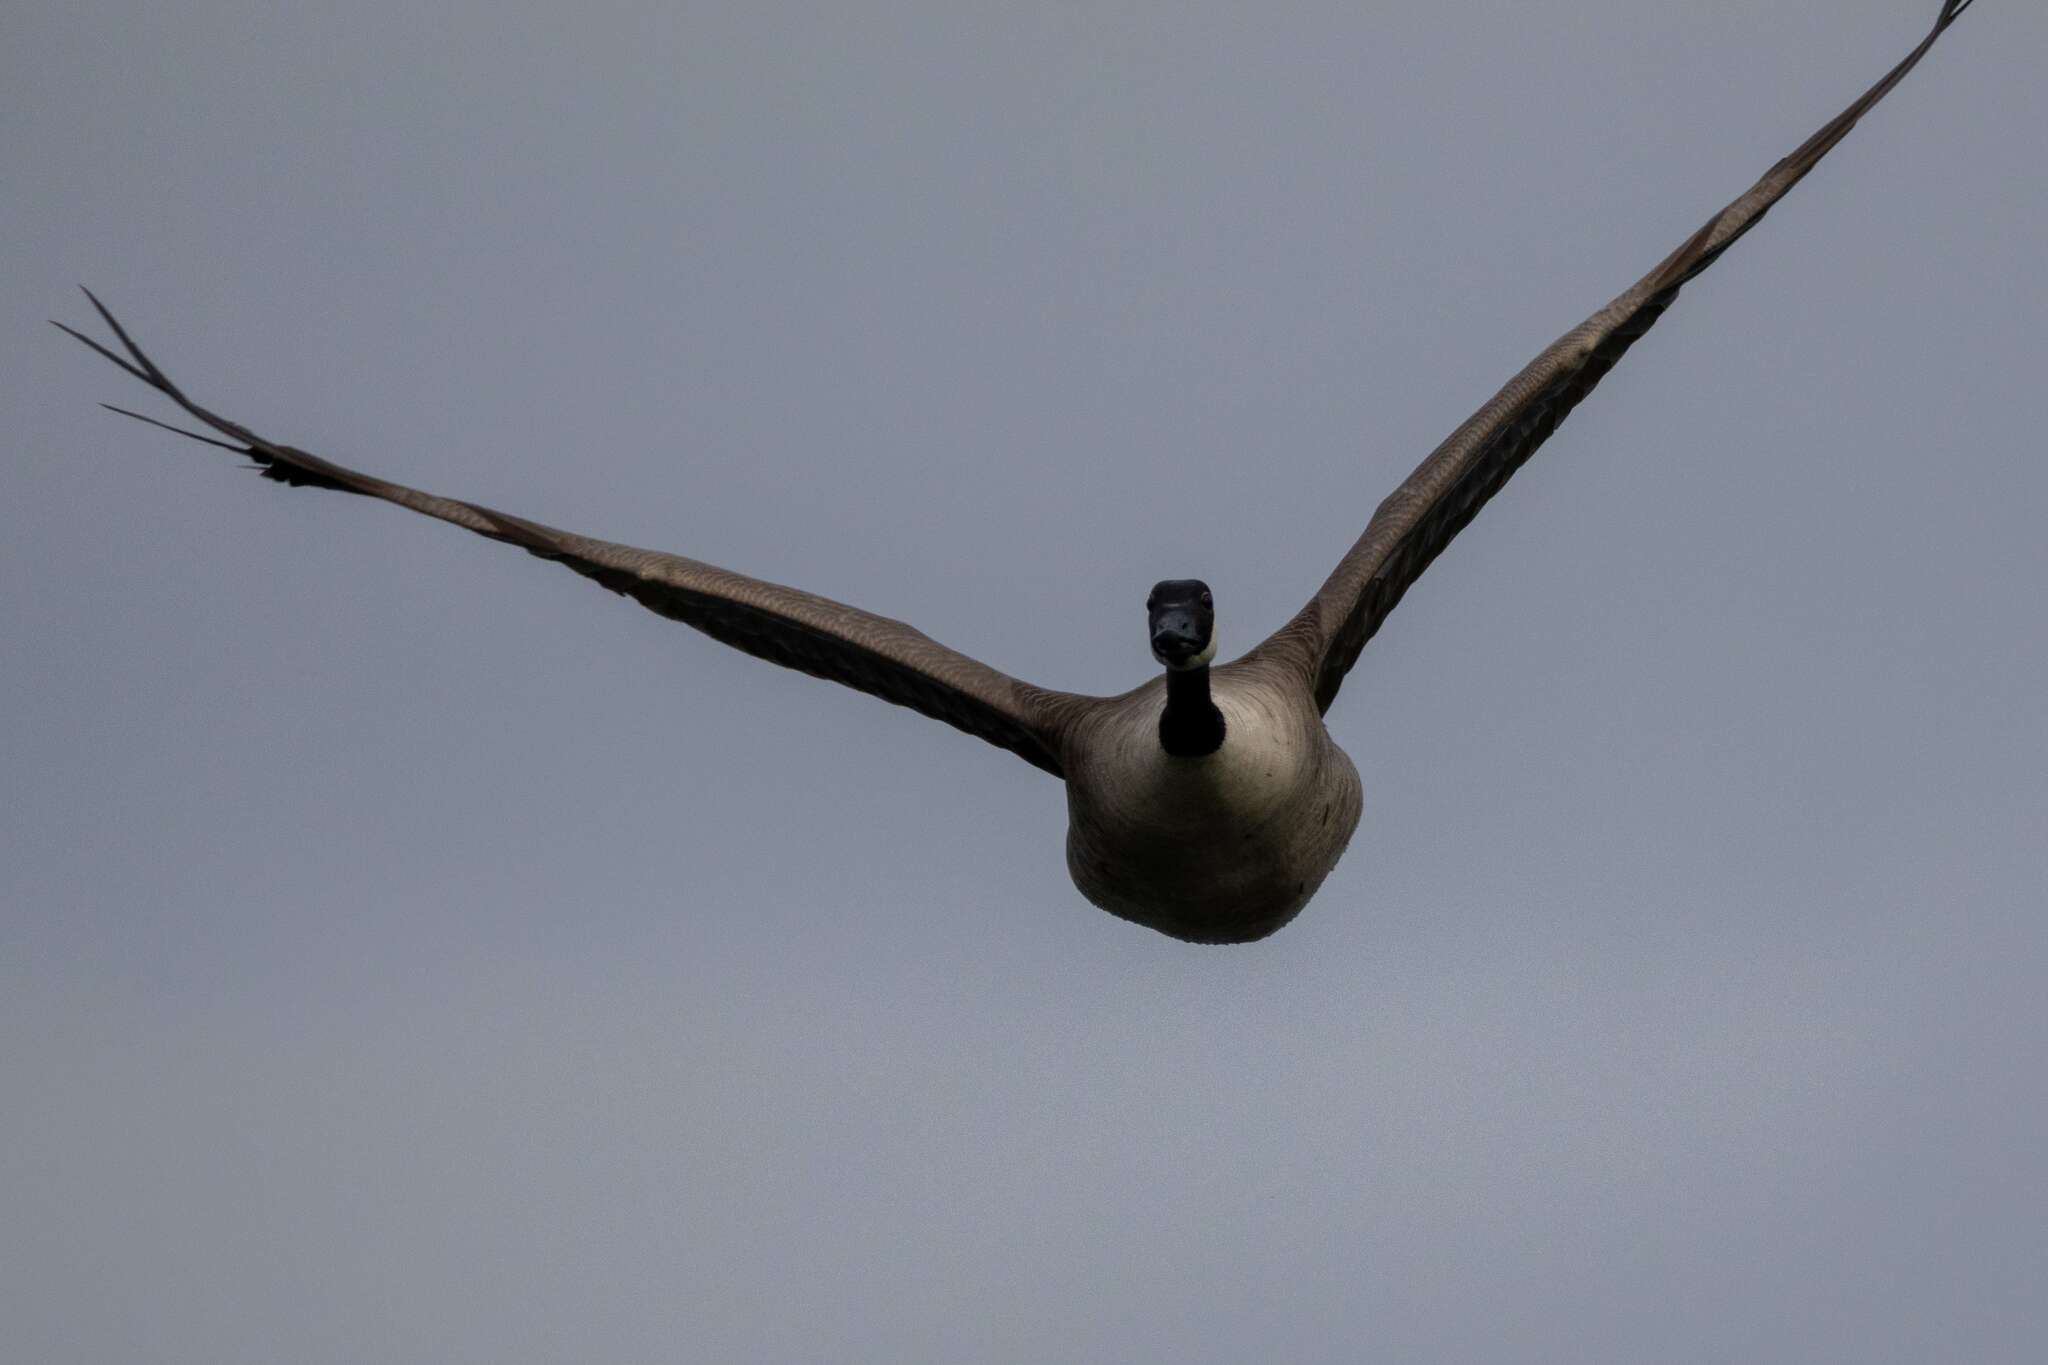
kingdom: Animalia
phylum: Chordata
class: Aves
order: Anseriformes
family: Anatidae
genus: Branta
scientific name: Branta canadensis
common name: Canada goose
